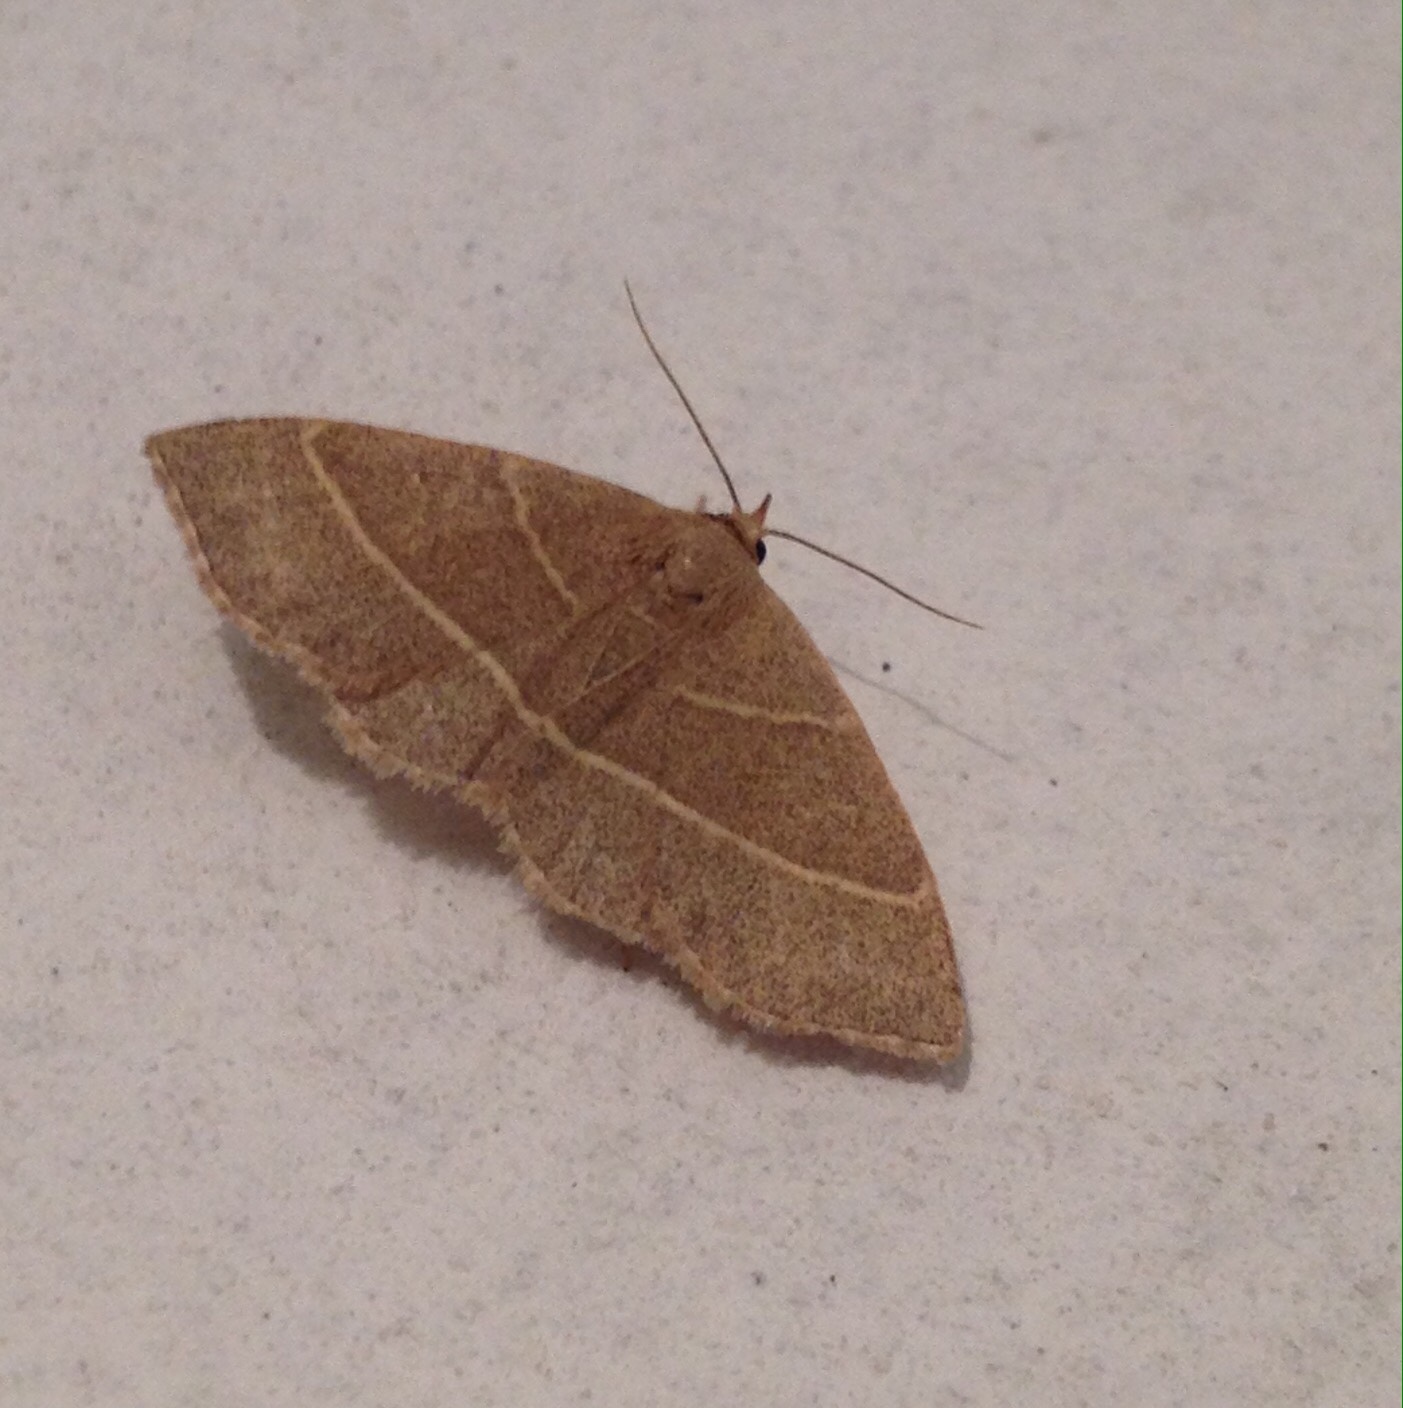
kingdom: Animalia
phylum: Arthropoda
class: Insecta
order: Lepidoptera
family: Erebidae
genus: Trisateles
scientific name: Trisateles emortualis
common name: Olive crescent
